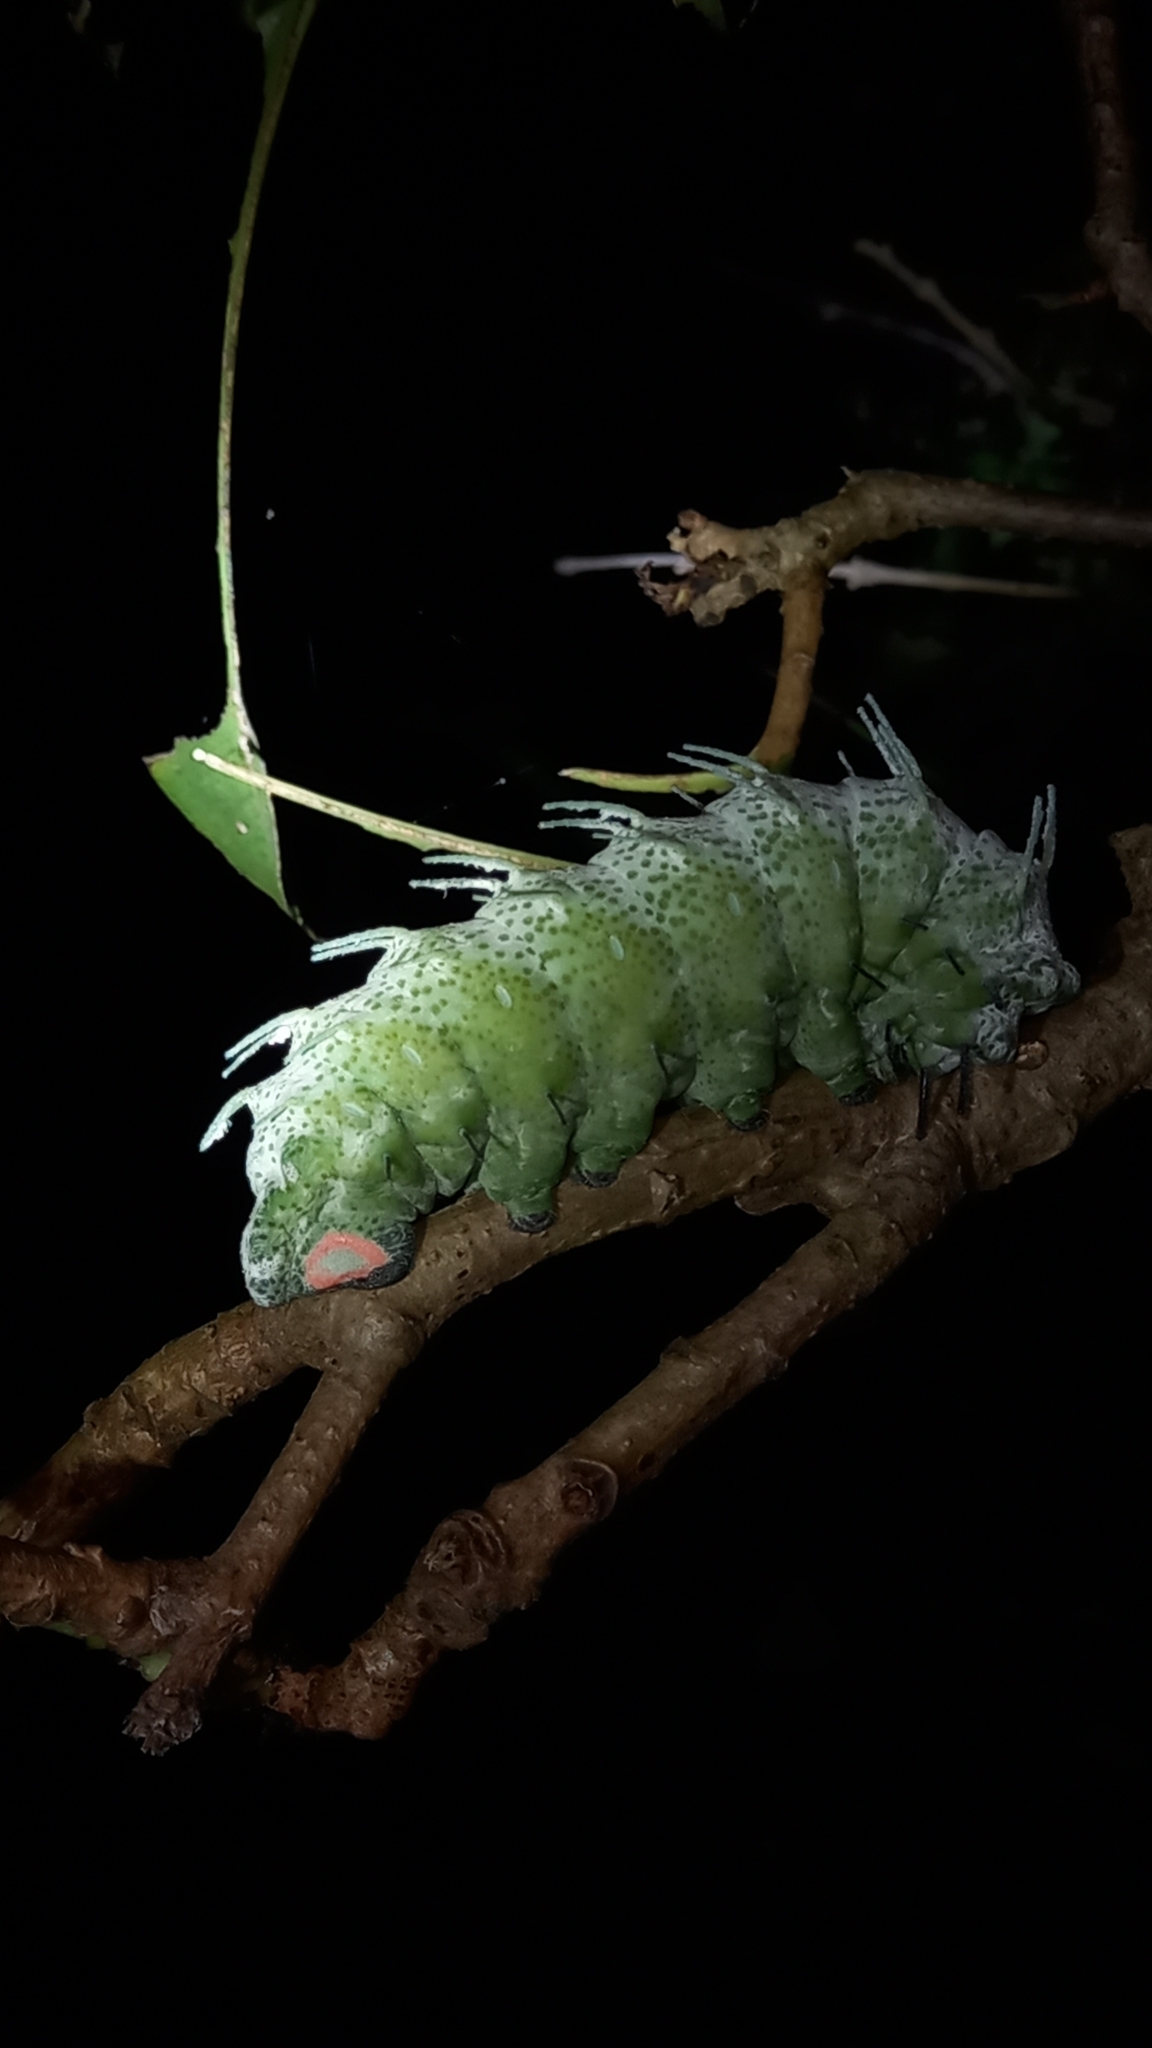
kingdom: Animalia
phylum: Arthropoda
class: Insecta
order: Lepidoptera
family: Saturniidae
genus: Attacus
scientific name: Attacus atlas
